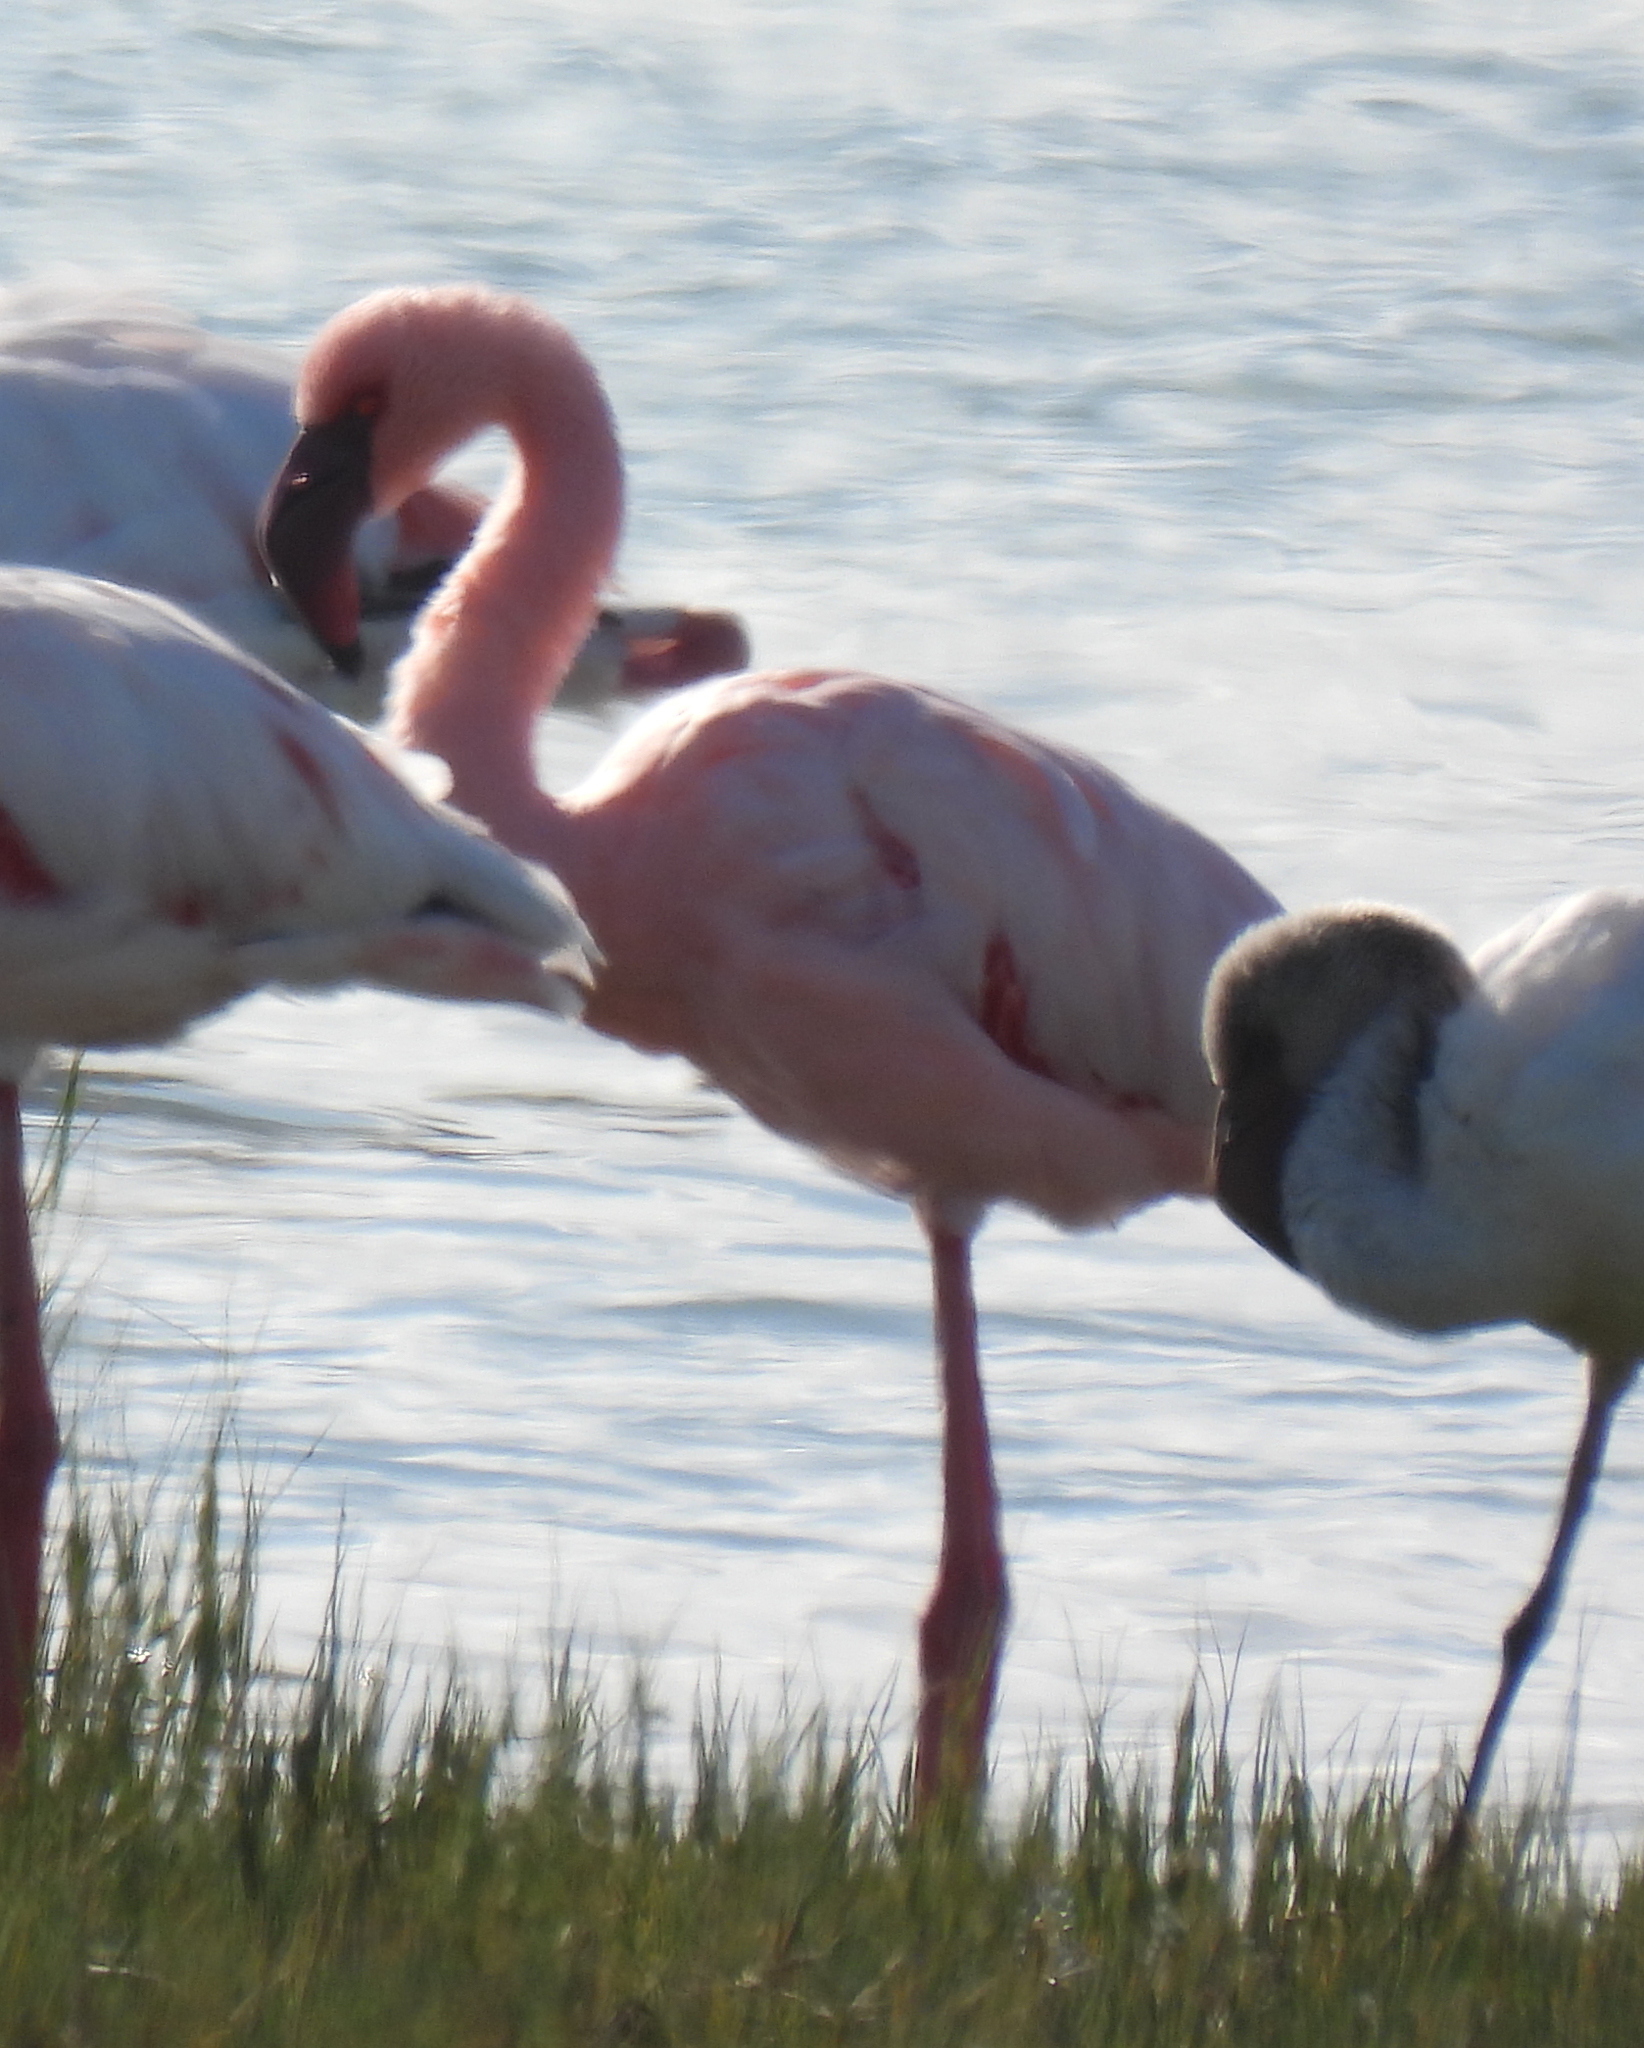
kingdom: Animalia
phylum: Chordata
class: Aves
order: Phoenicopteriformes
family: Phoenicopteridae
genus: Phoeniconaias
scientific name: Phoeniconaias minor
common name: Lesser flamingo
